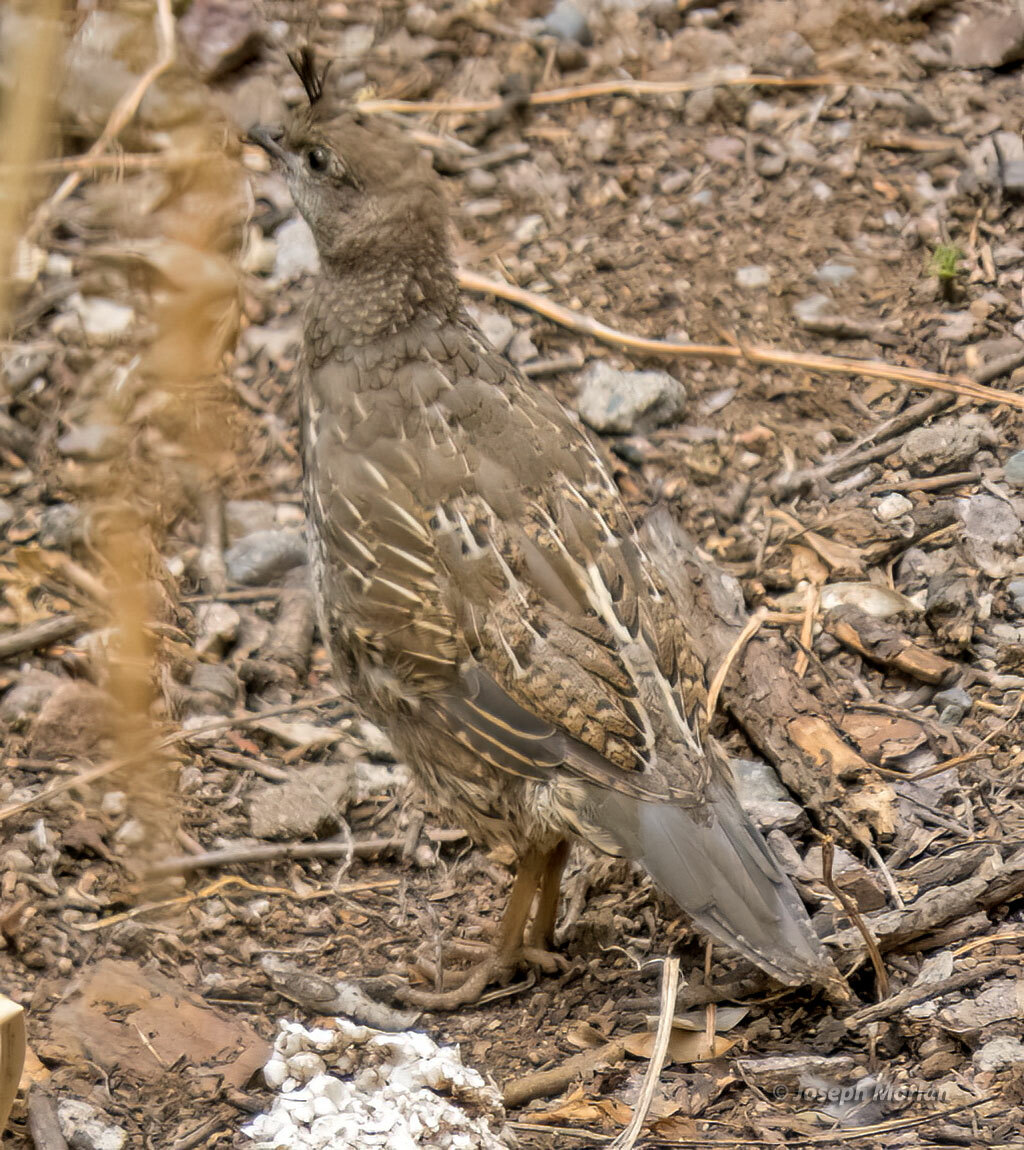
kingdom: Animalia
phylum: Chordata
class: Aves
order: Galliformes
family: Odontophoridae
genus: Callipepla
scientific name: Callipepla californica
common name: California quail
